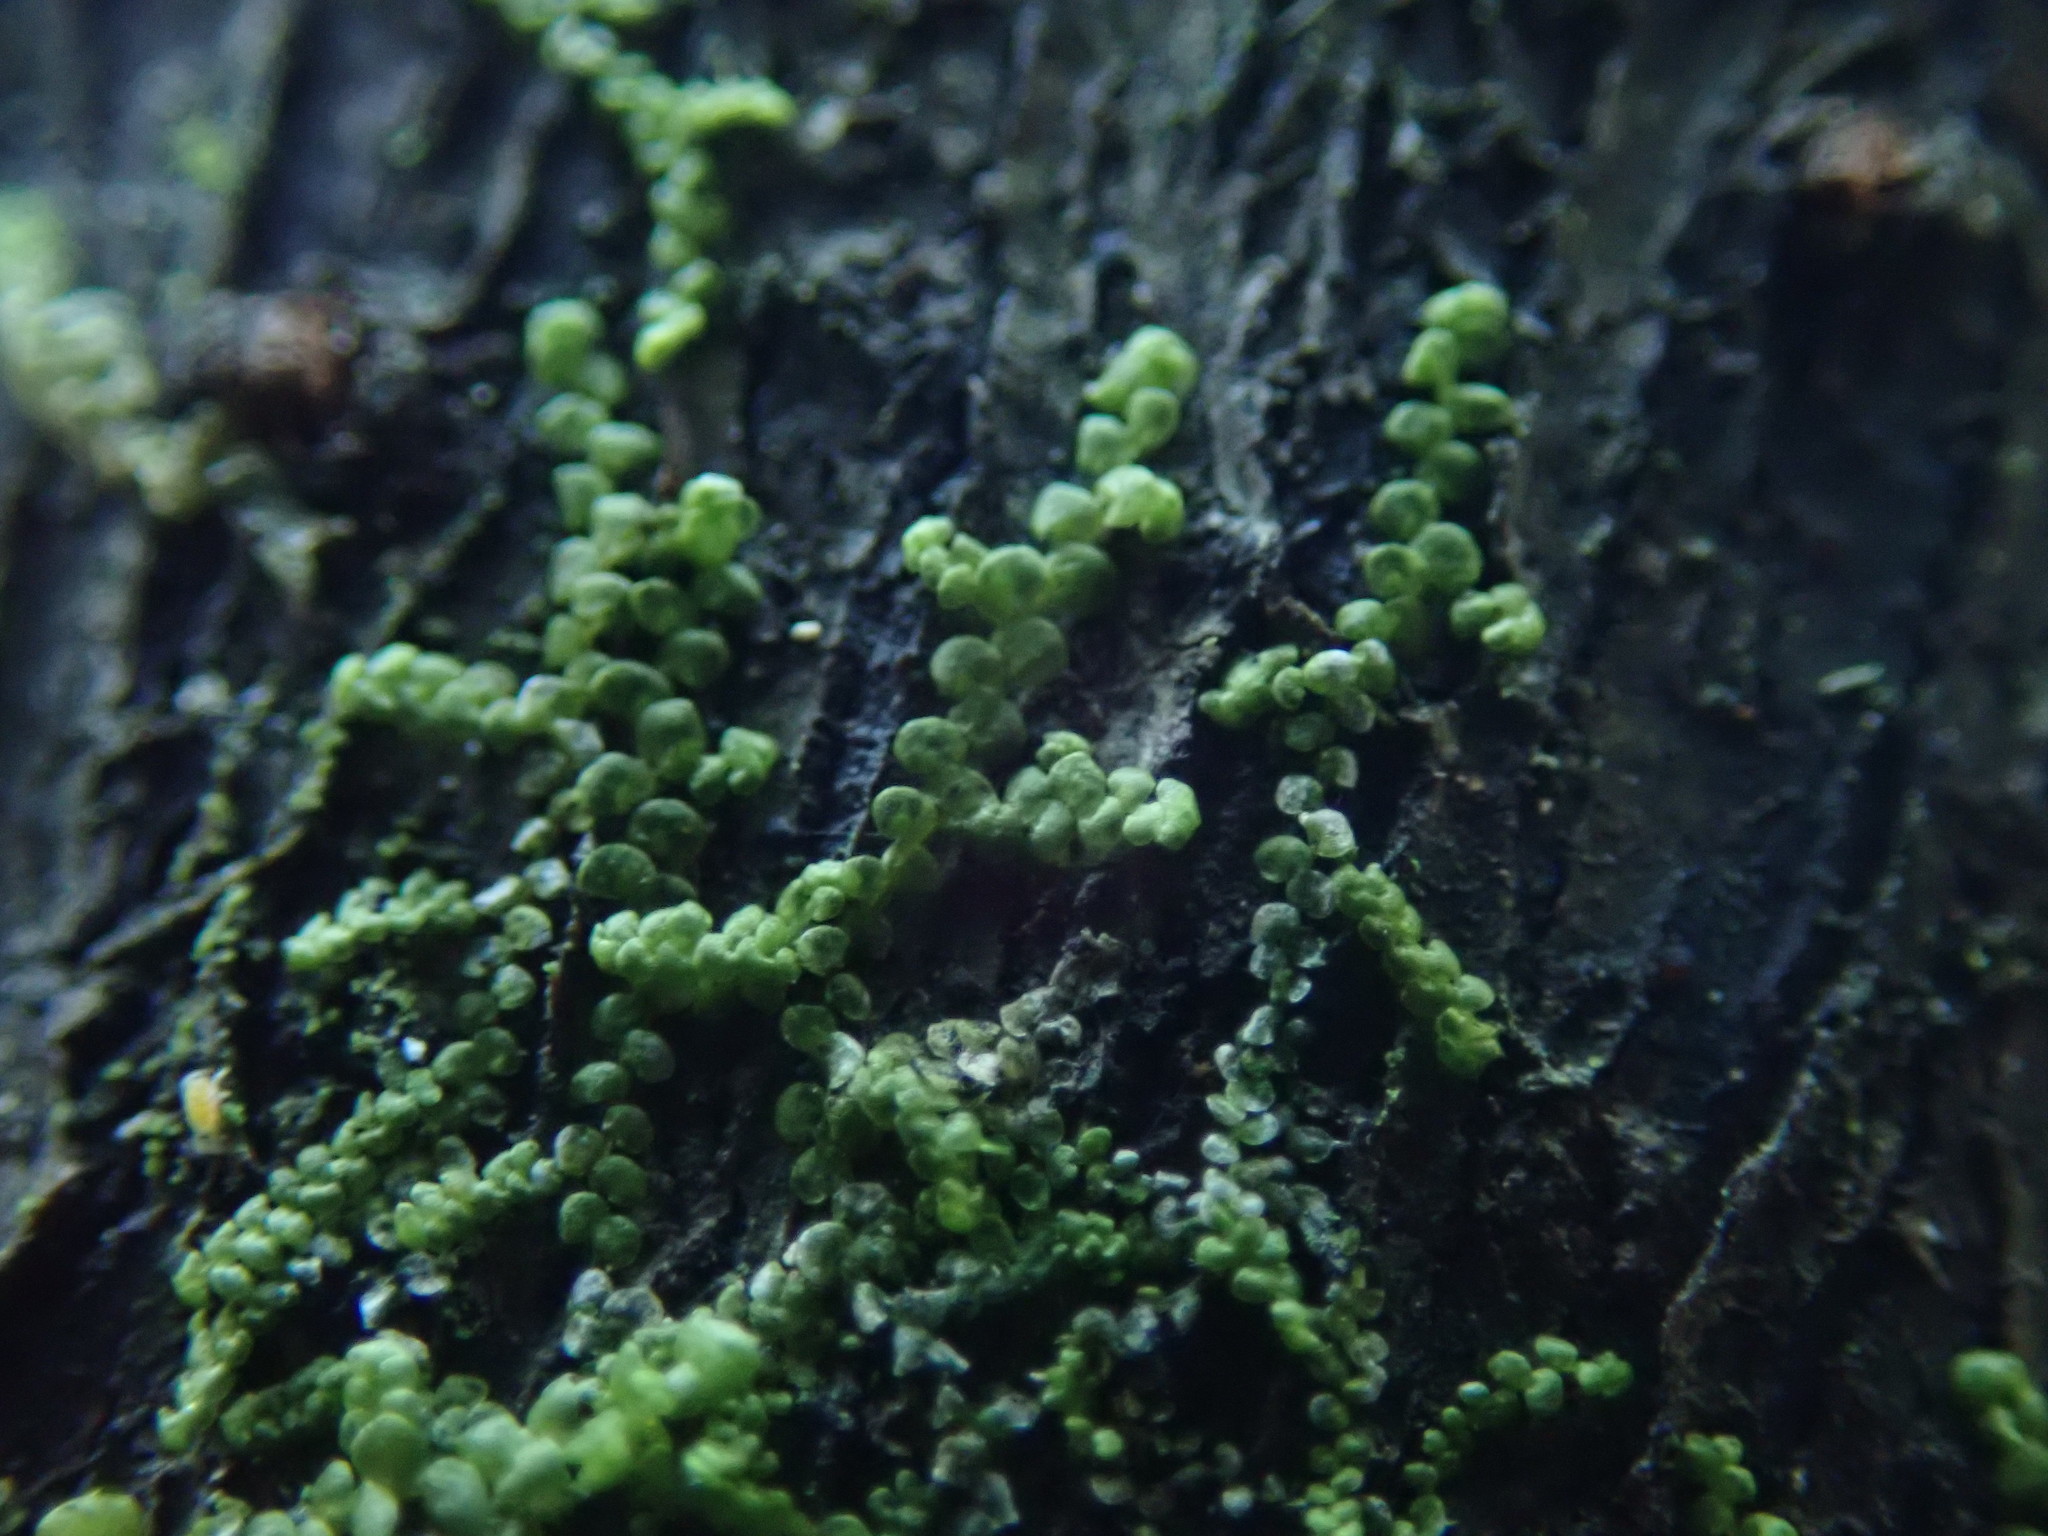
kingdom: Plantae
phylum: Marchantiophyta
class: Jungermanniopsida
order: Porellales
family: Radulaceae
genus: Radula
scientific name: Radula bolanderi
